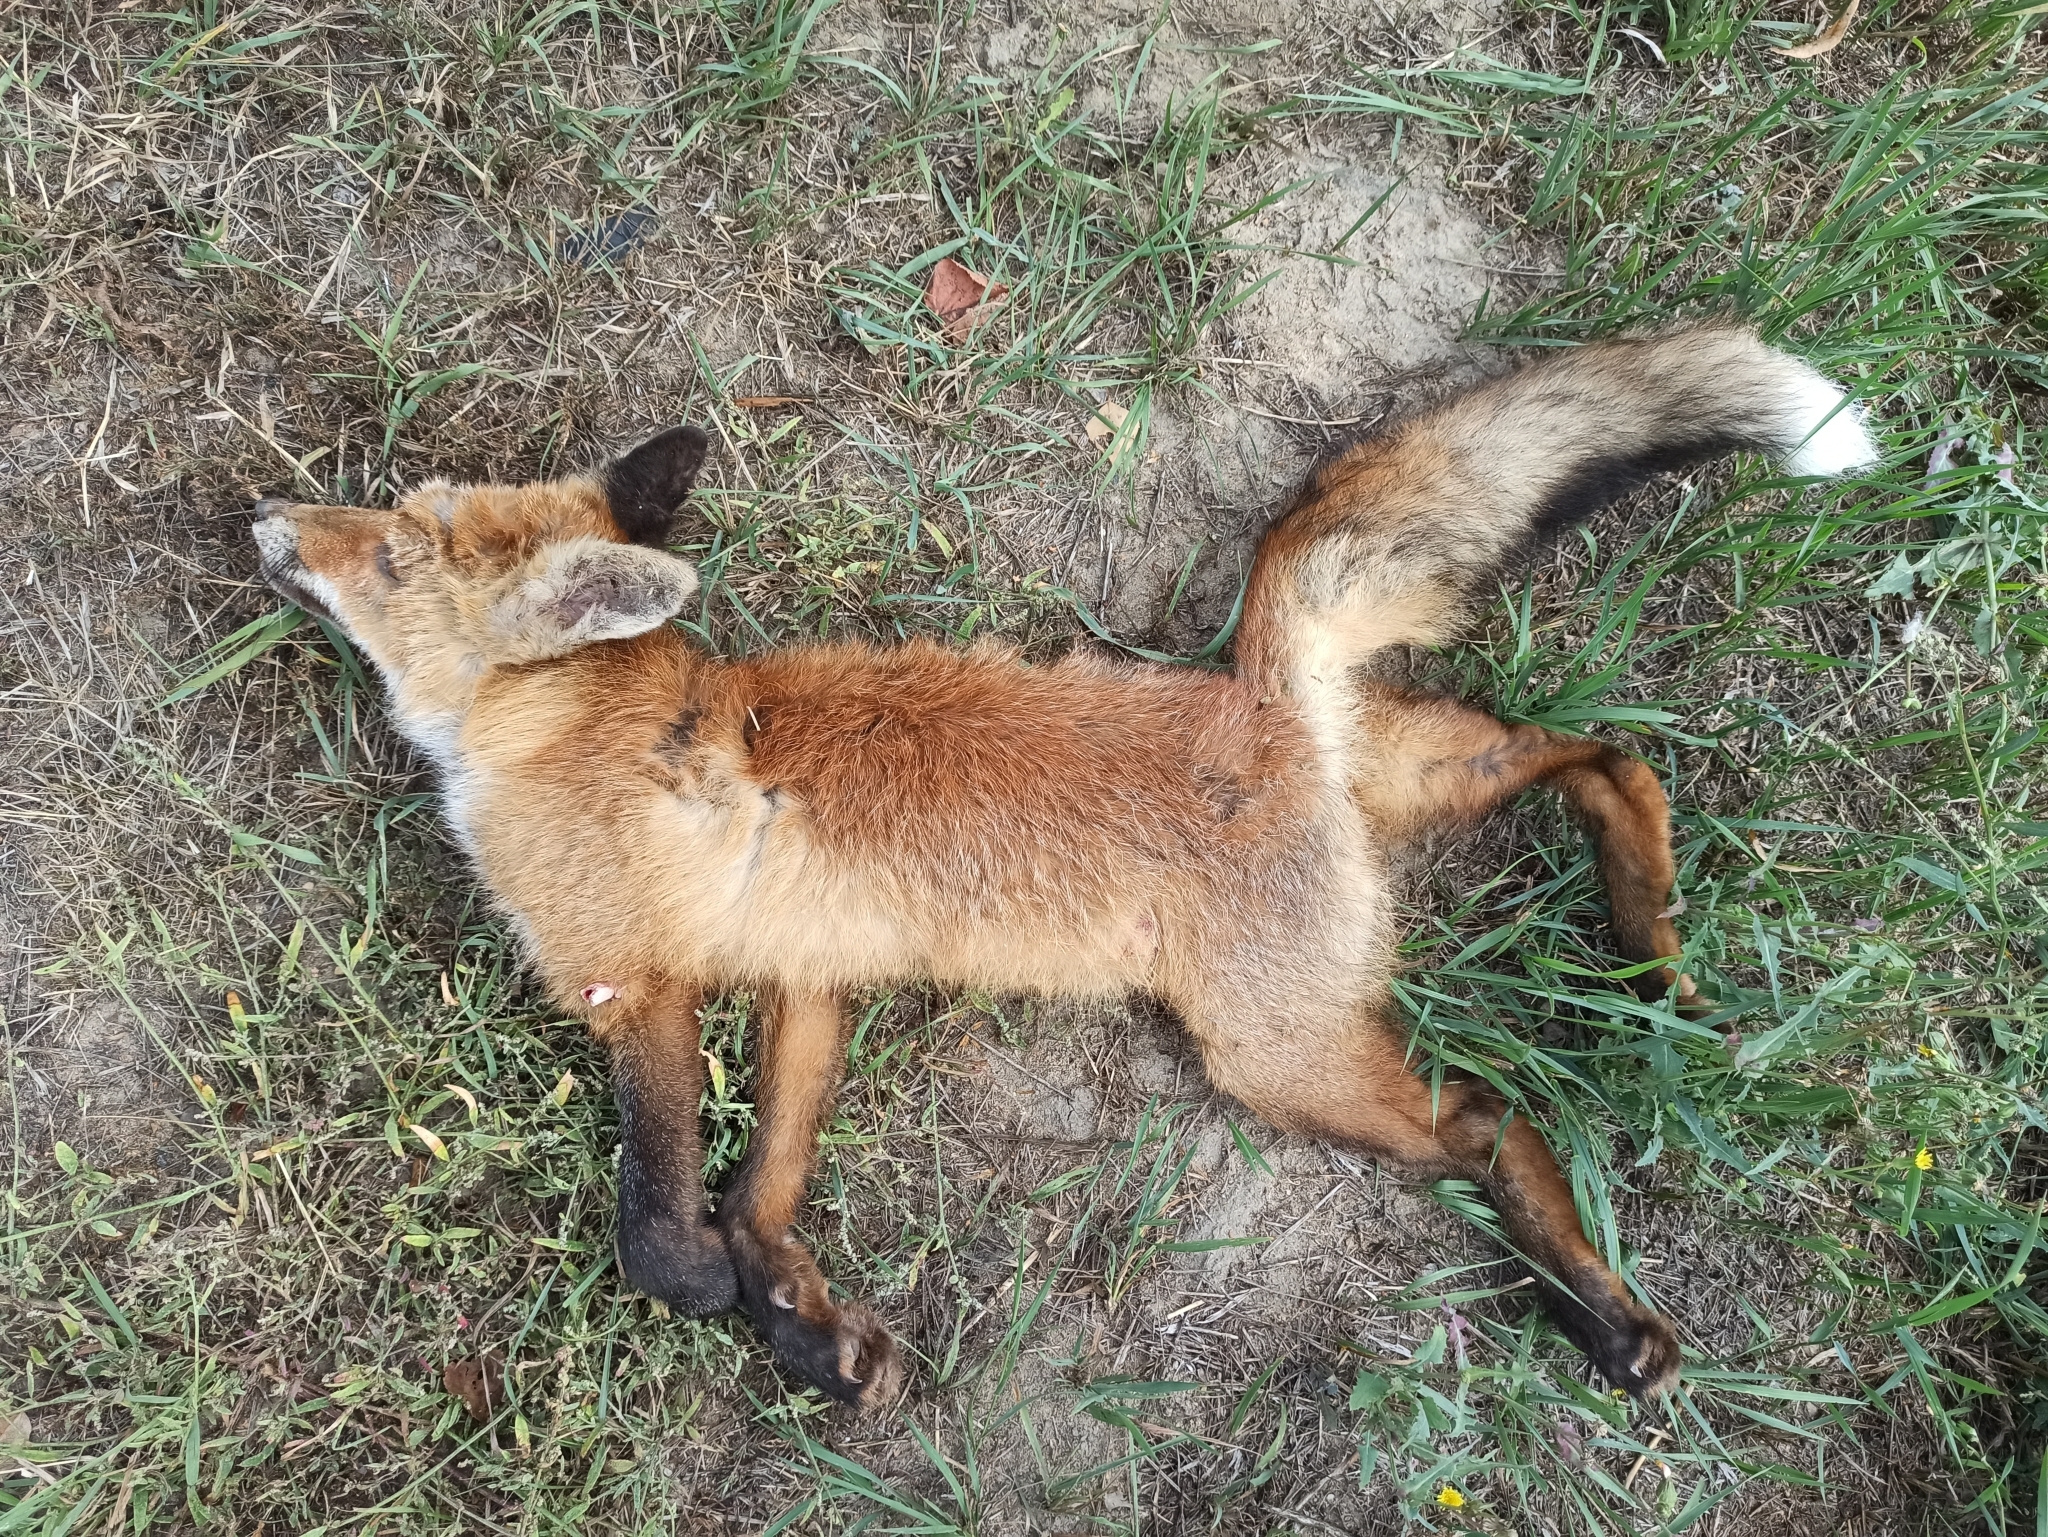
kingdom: Animalia
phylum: Chordata
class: Mammalia
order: Carnivora
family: Canidae
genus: Vulpes
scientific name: Vulpes vulpes
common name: Red fox
